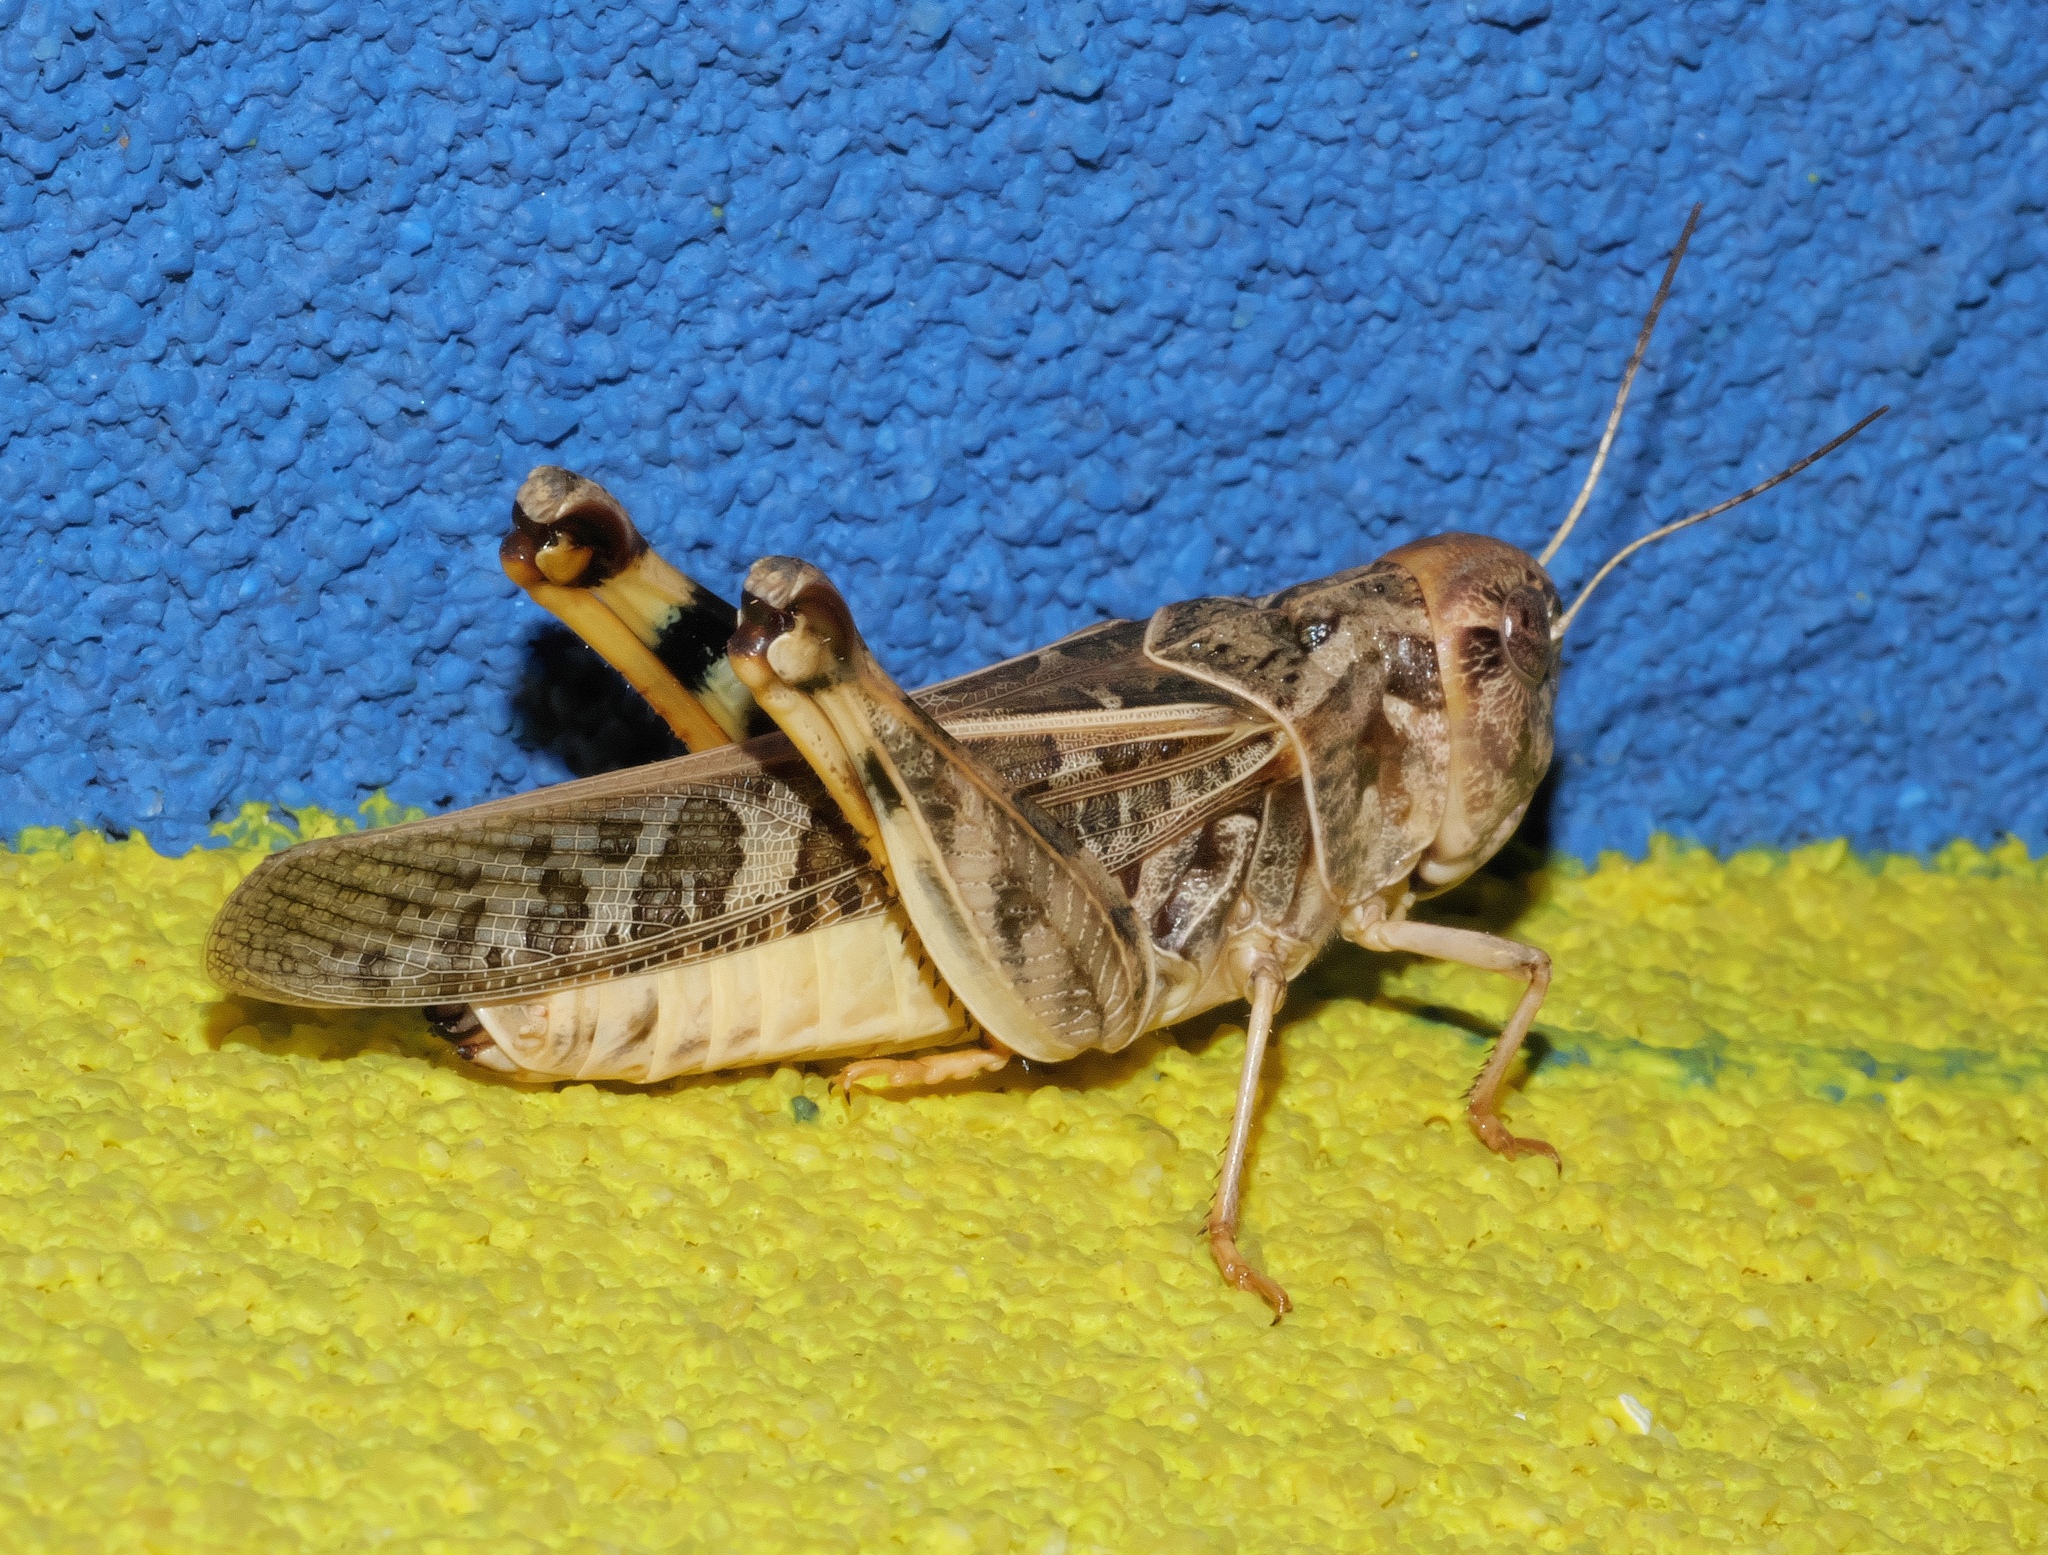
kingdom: Animalia
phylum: Arthropoda
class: Insecta
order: Orthoptera
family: Acrididae
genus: Hippiscus
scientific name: Hippiscus ocelote
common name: Wrinkled grasshopper
